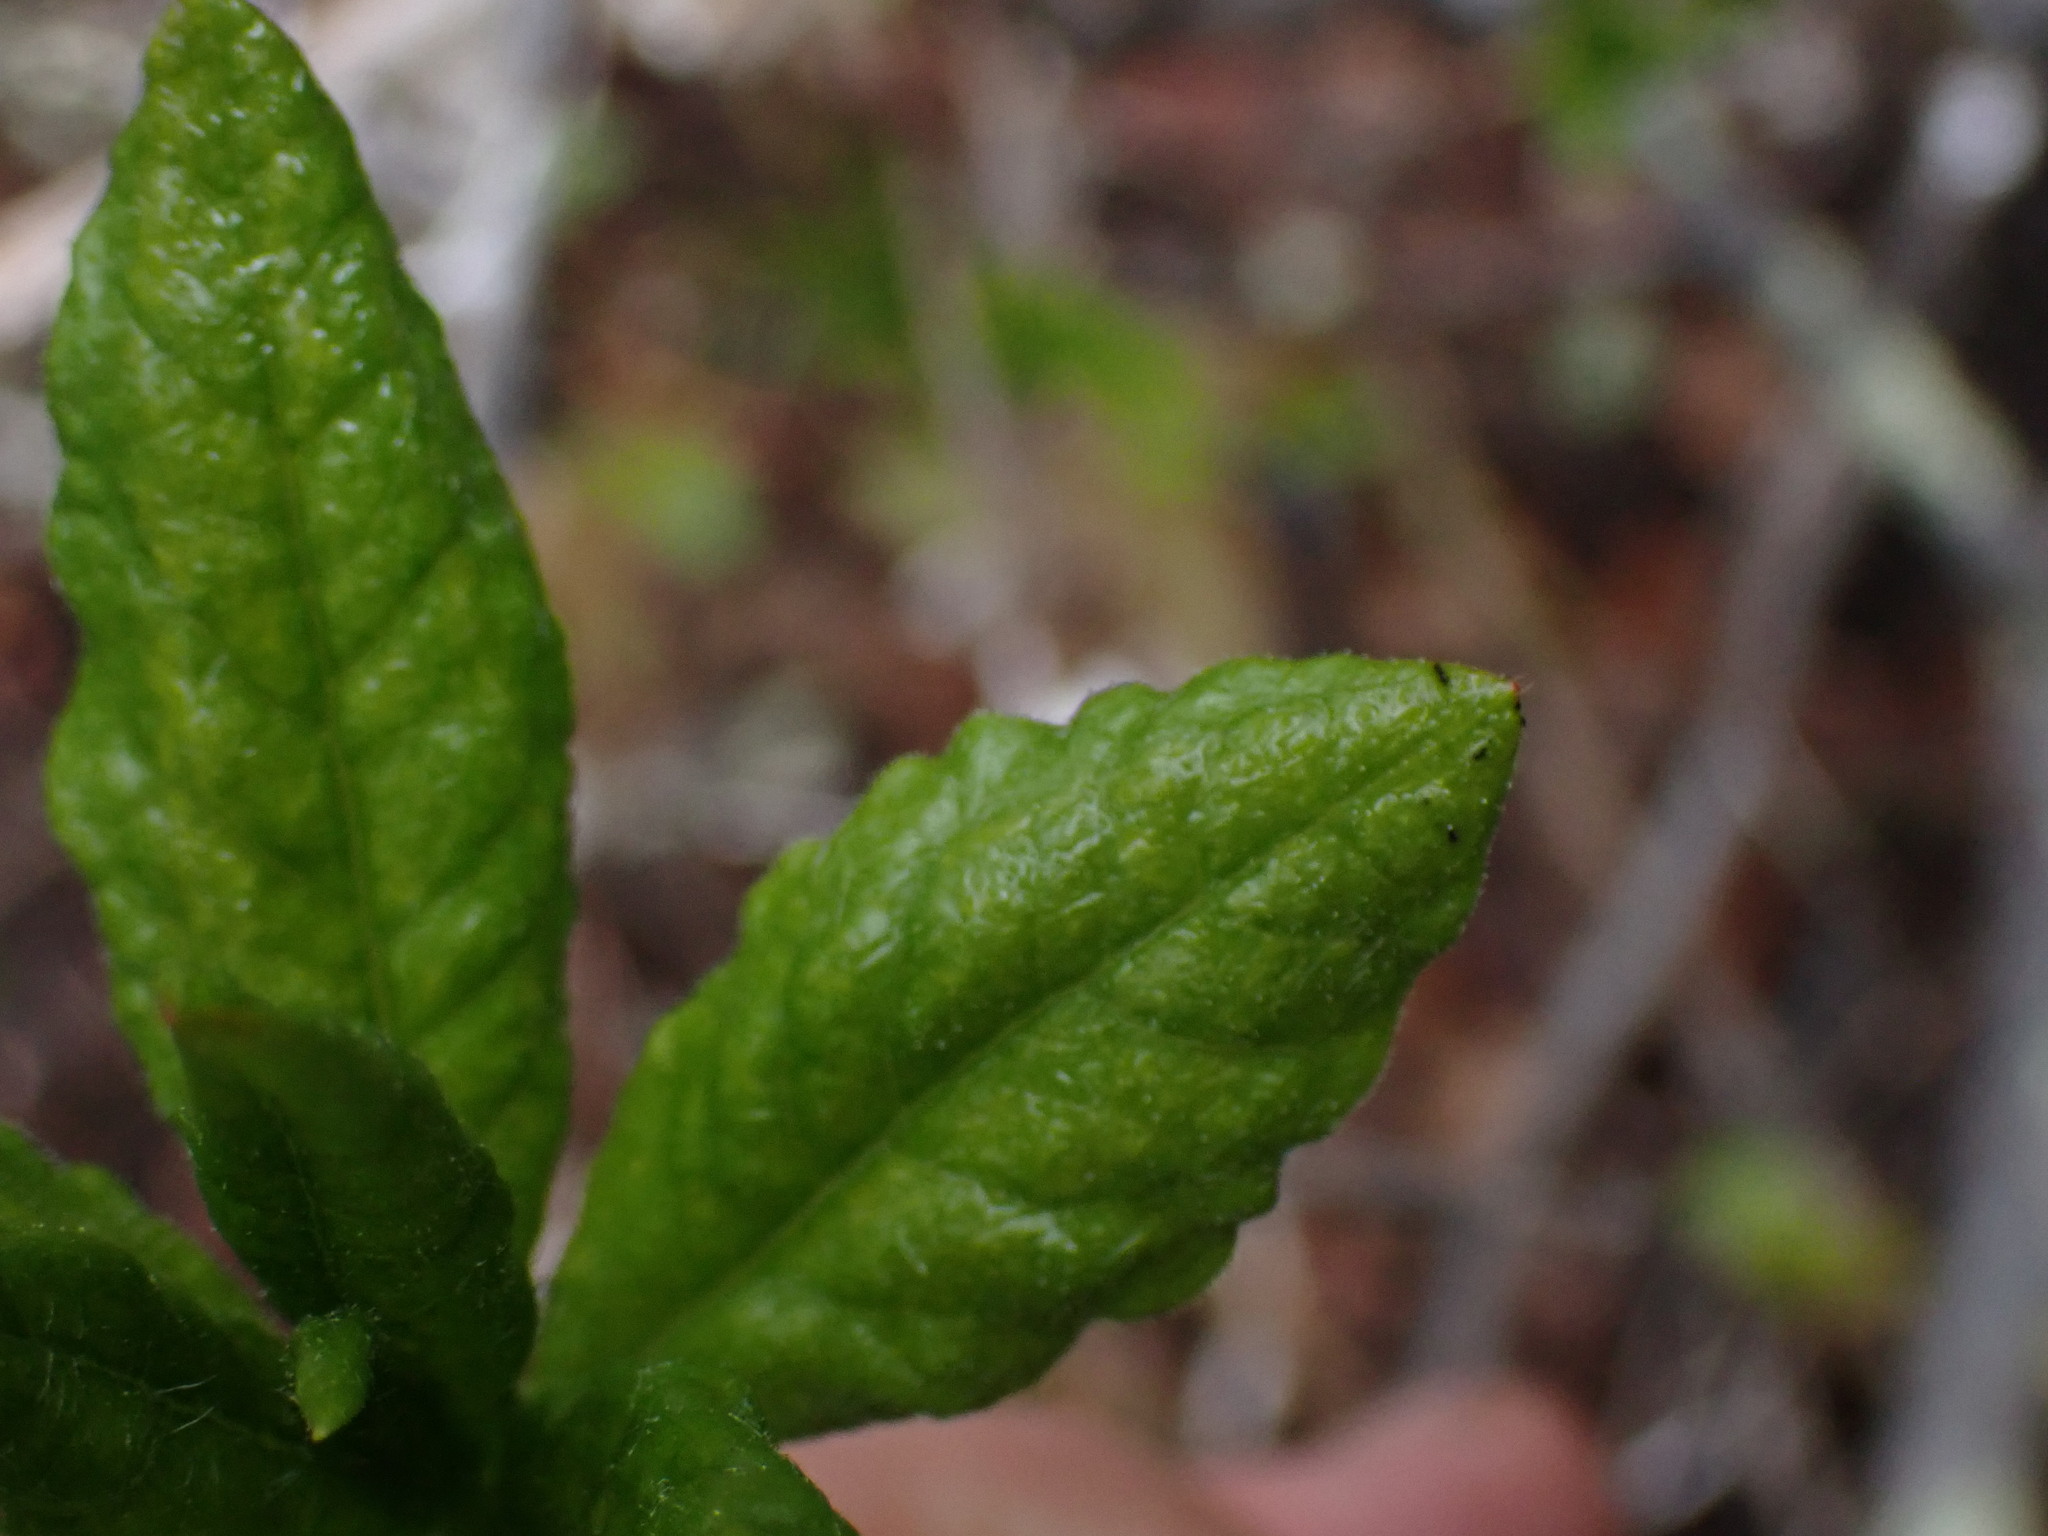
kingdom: Plantae
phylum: Tracheophyta
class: Magnoliopsida
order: Ericales
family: Ericaceae
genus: Rhododendron
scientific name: Rhododendron albiflorum
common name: White rhododendron
